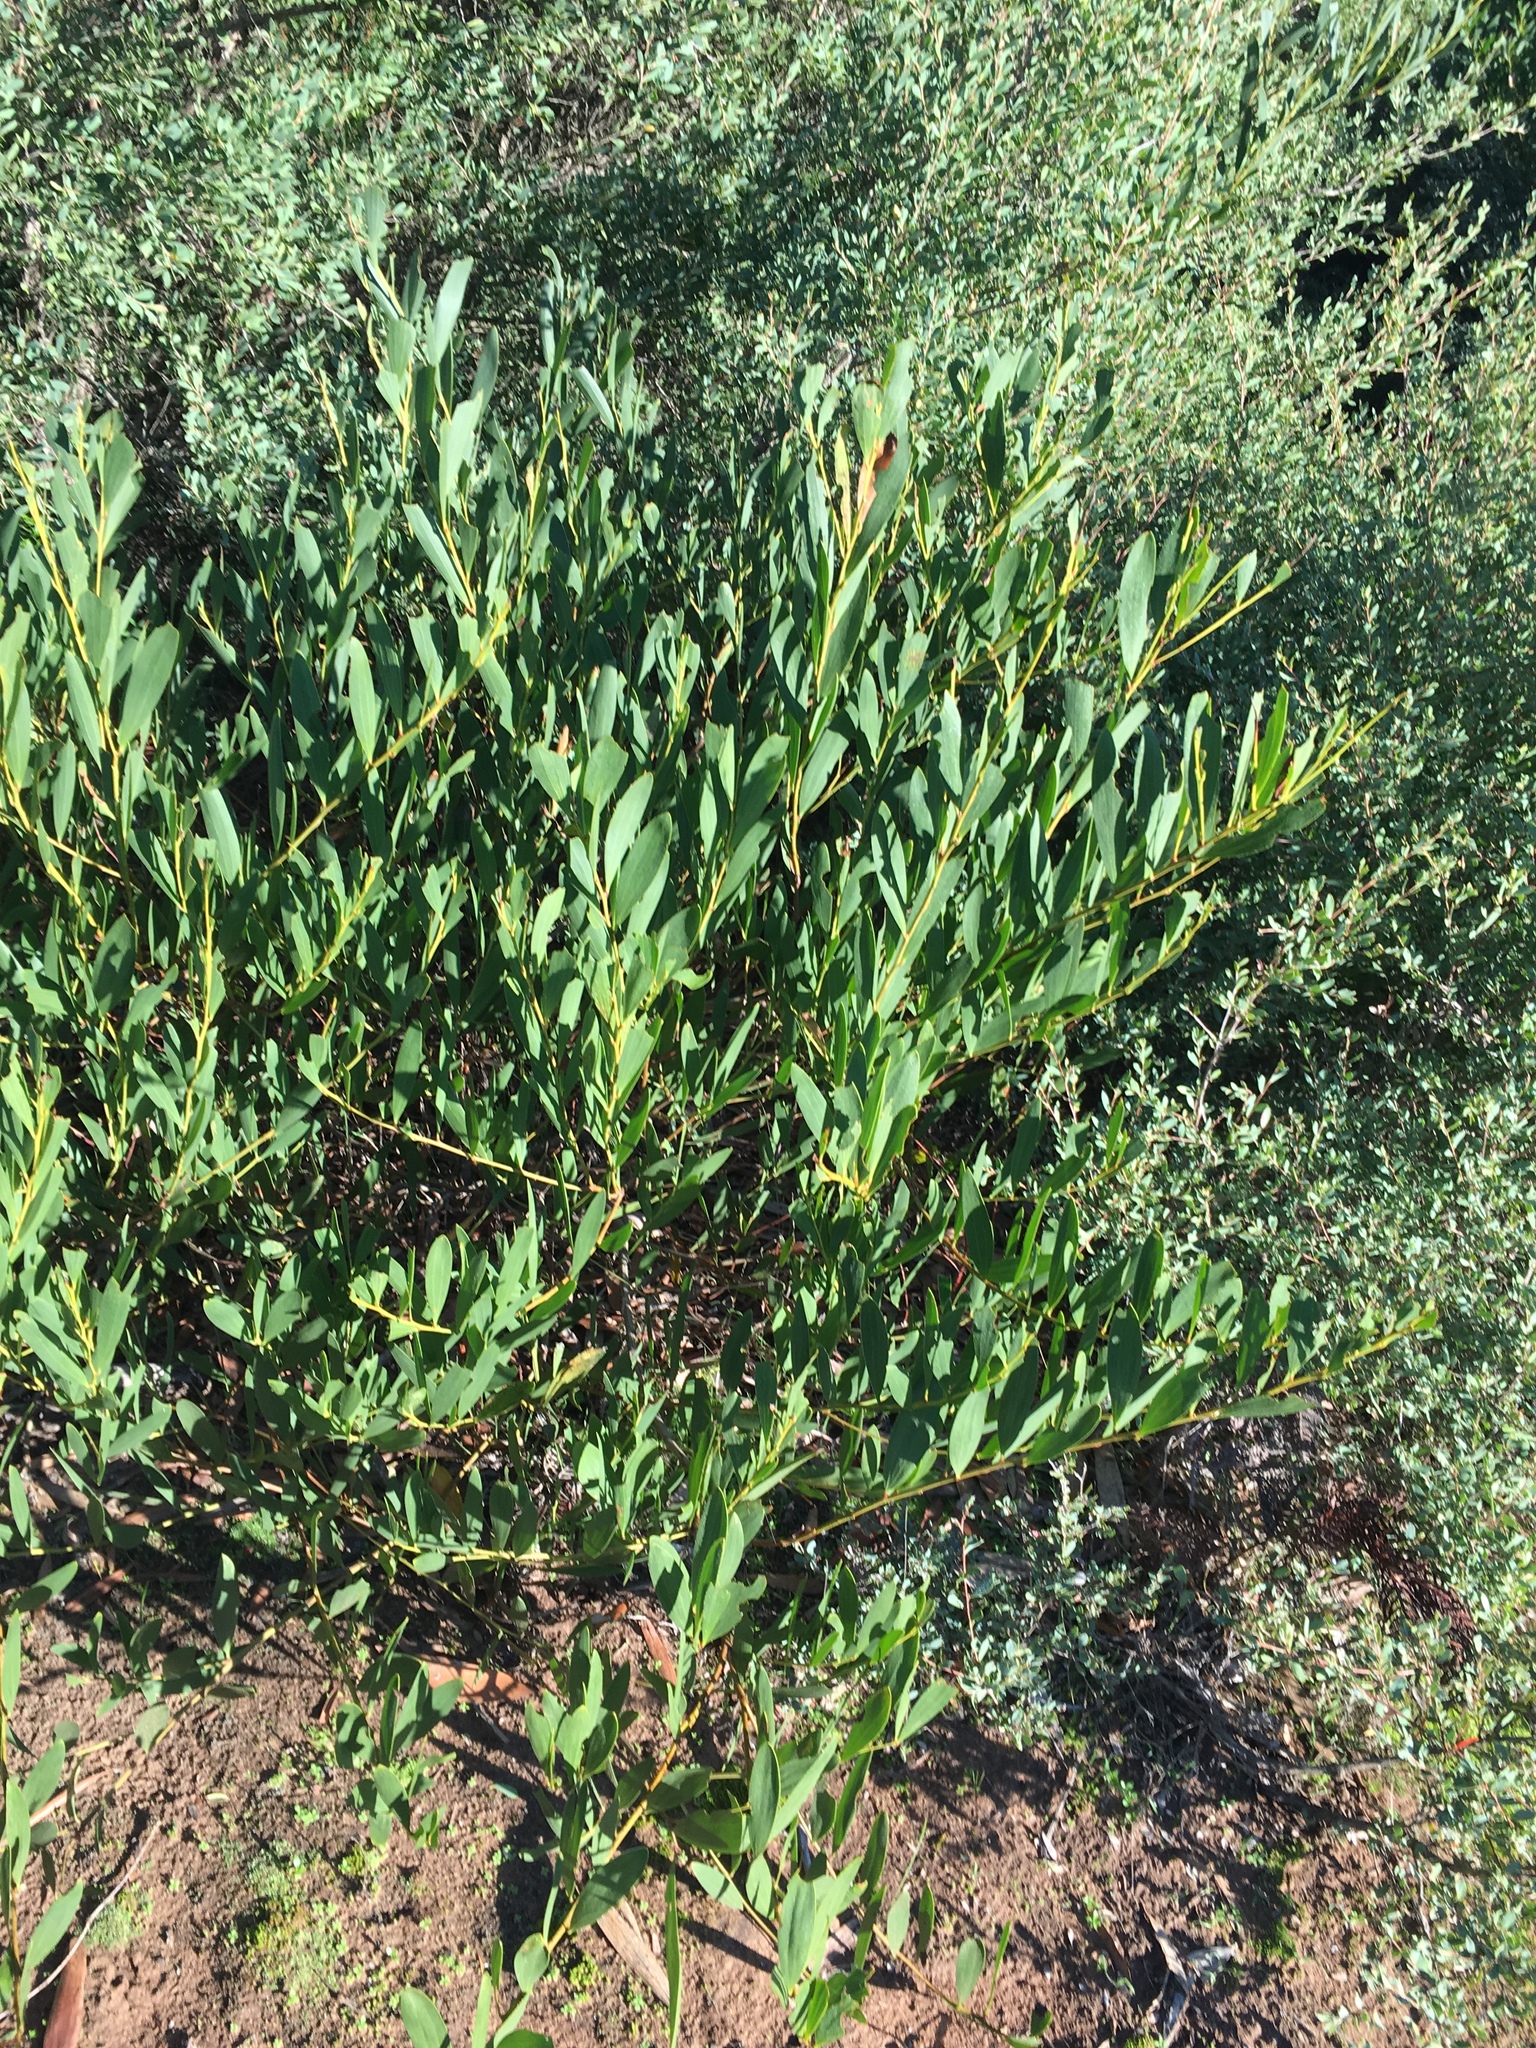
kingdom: Plantae
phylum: Tracheophyta
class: Magnoliopsida
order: Fabales
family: Fabaceae
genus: Acacia
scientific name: Acacia longifolia
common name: Sydney golden wattle
